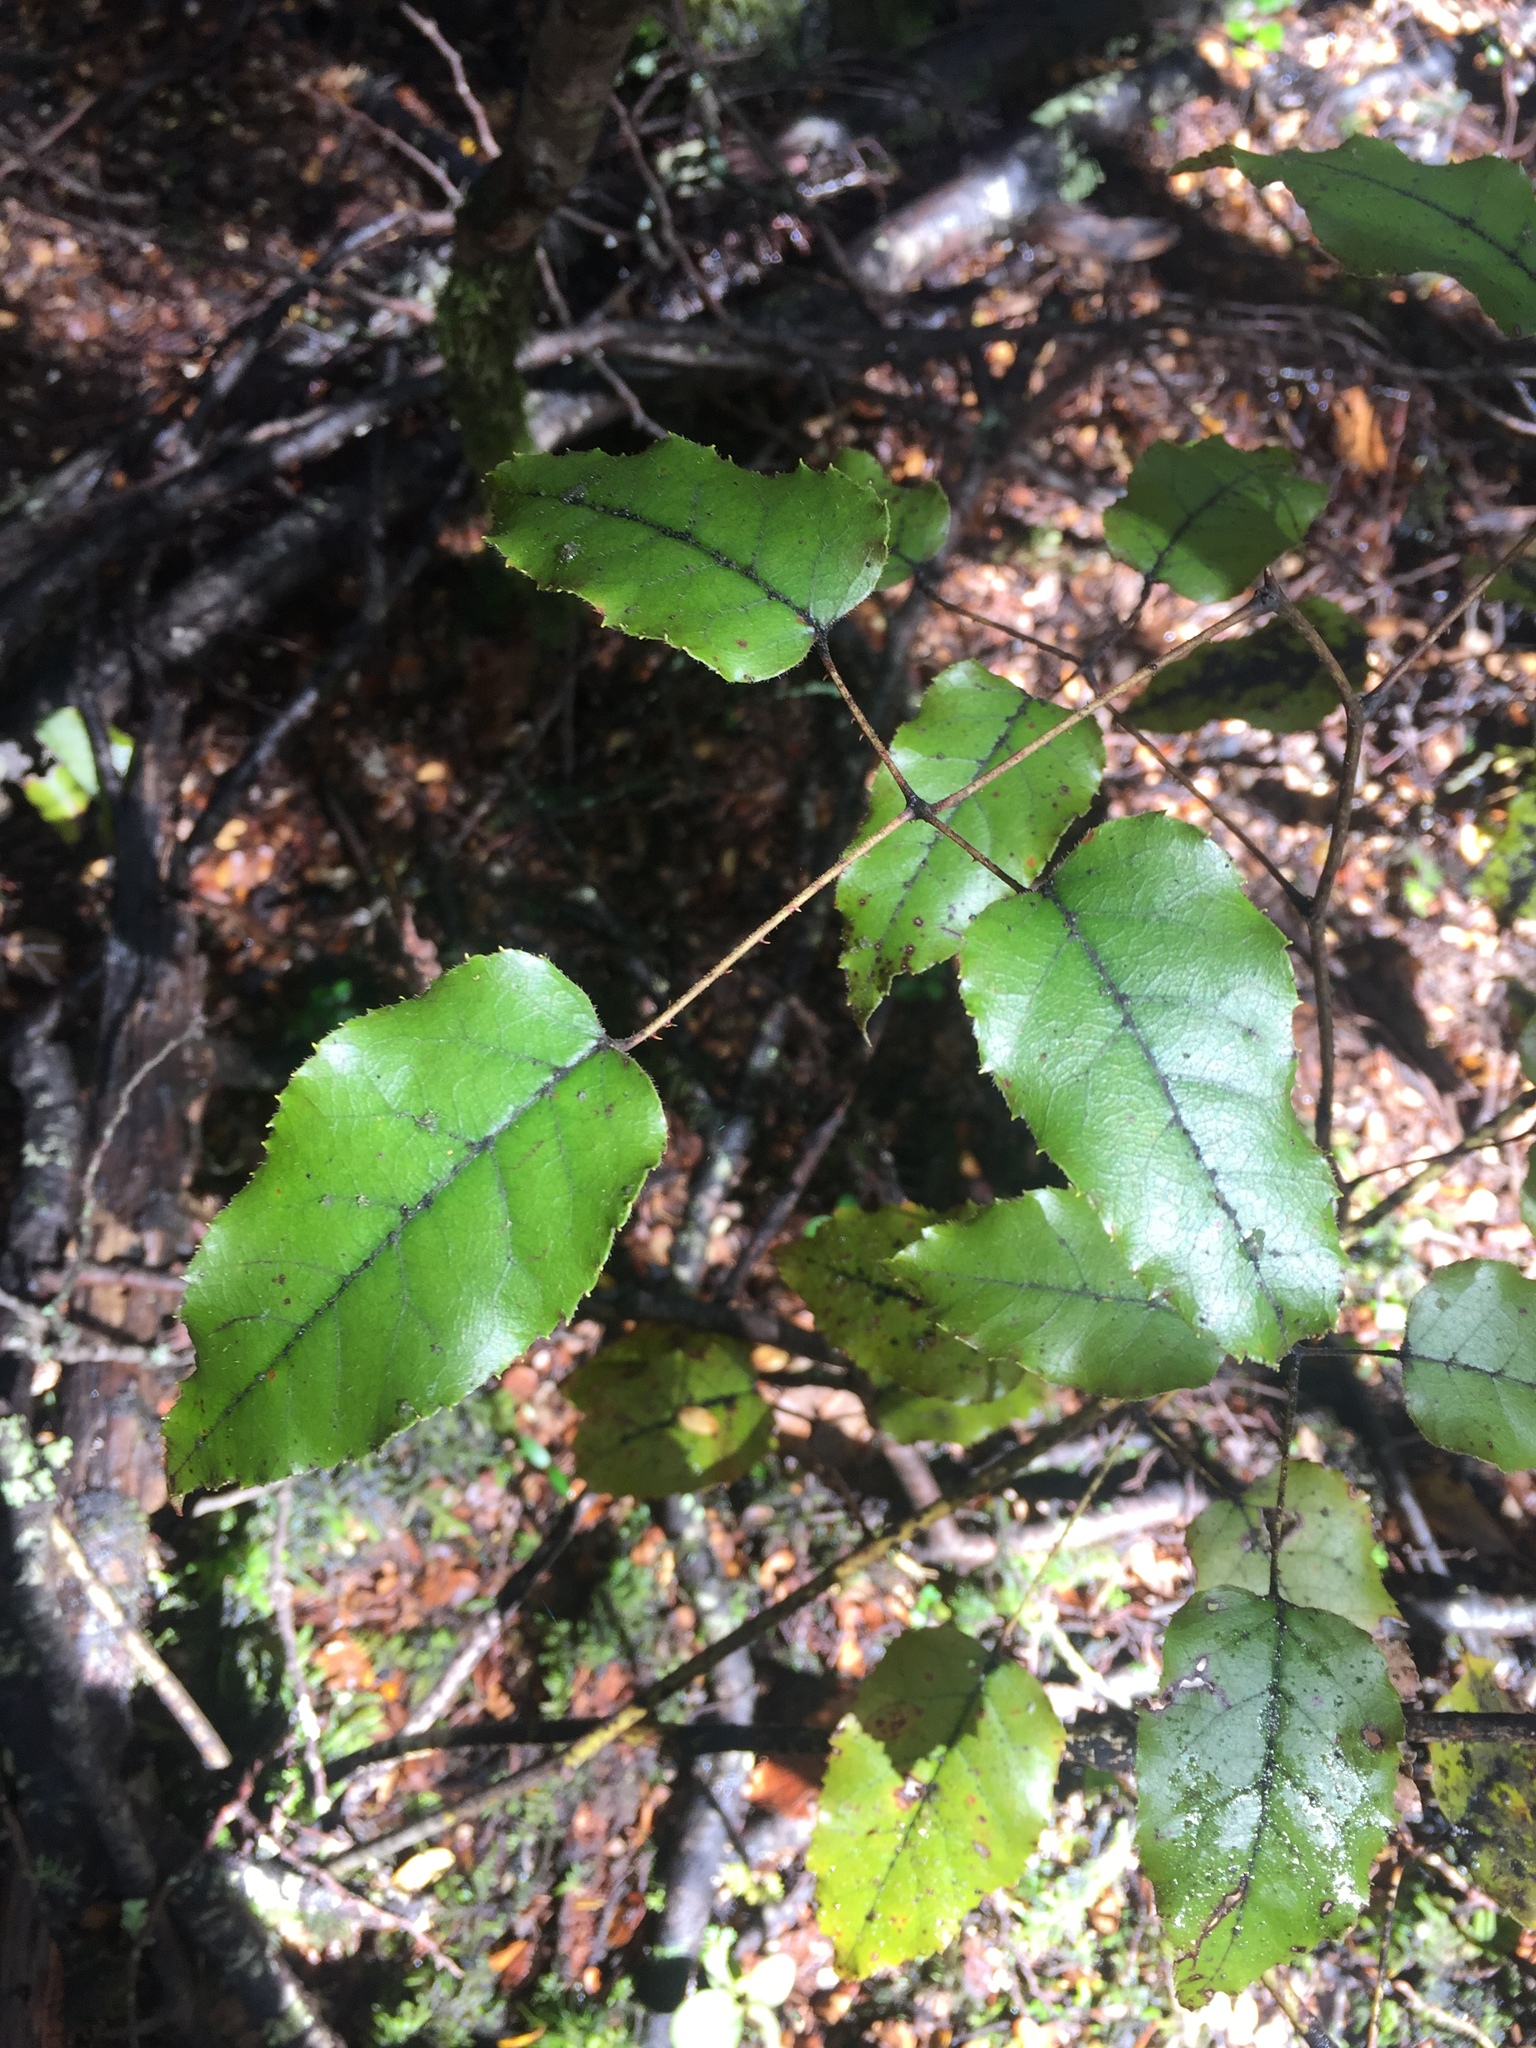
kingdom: Plantae
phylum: Tracheophyta
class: Magnoliopsida
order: Rosales
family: Rosaceae
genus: Rubus
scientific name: Rubus cissoides
